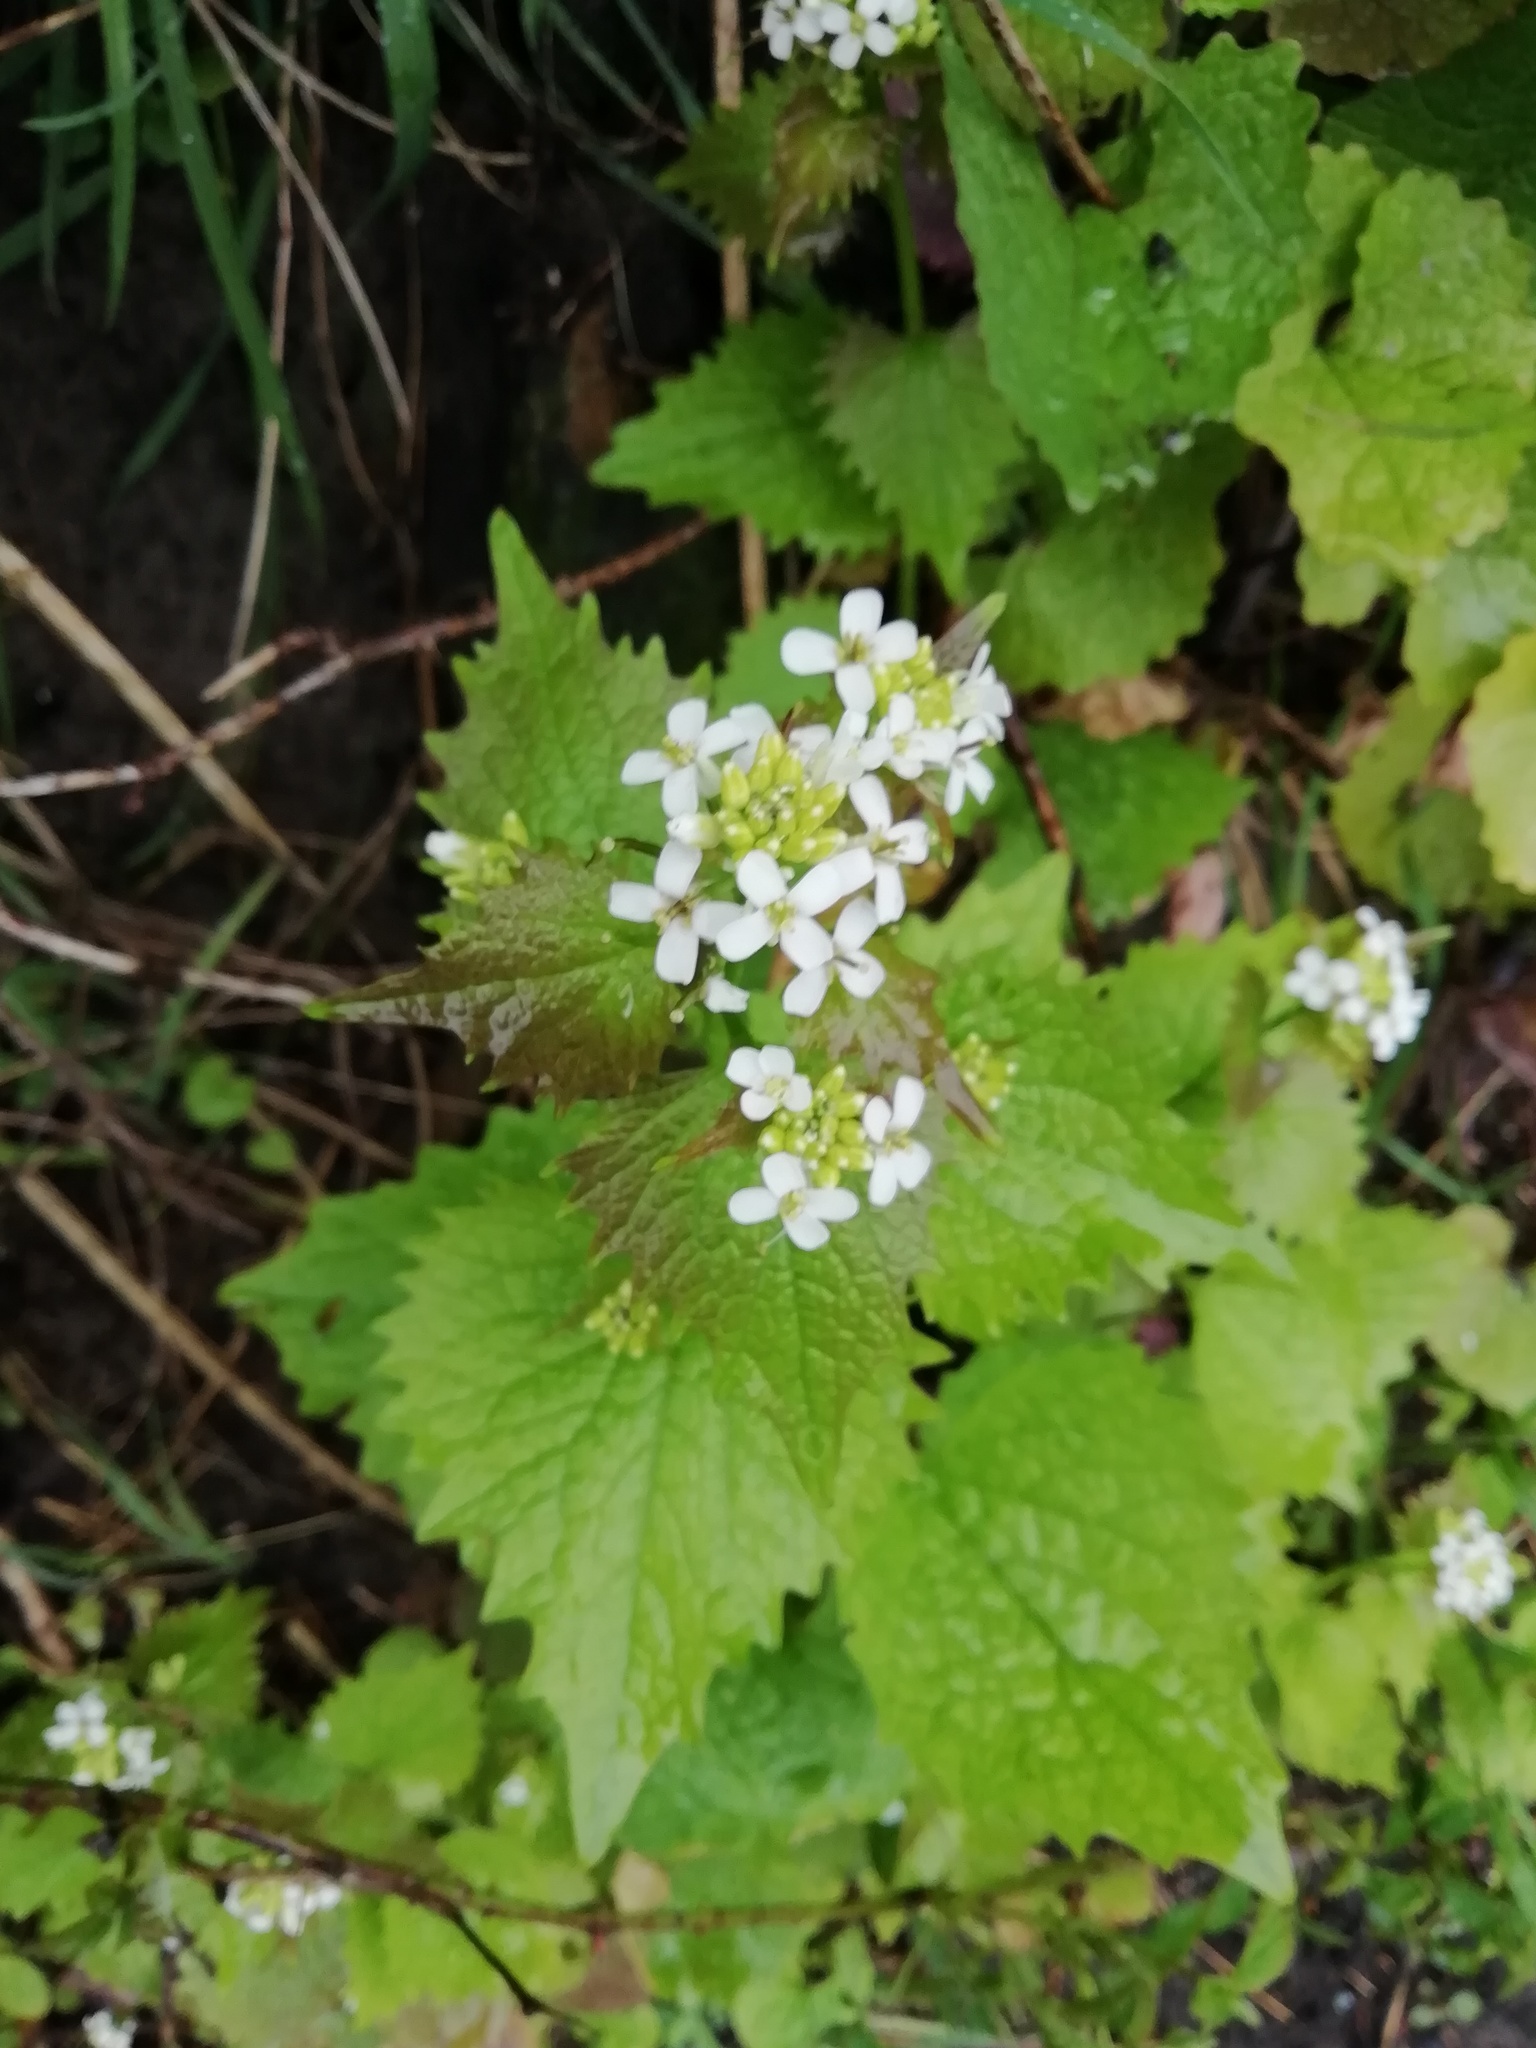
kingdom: Plantae
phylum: Tracheophyta
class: Magnoliopsida
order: Brassicales
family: Brassicaceae
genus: Alliaria
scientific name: Alliaria petiolata
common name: Garlic mustard
